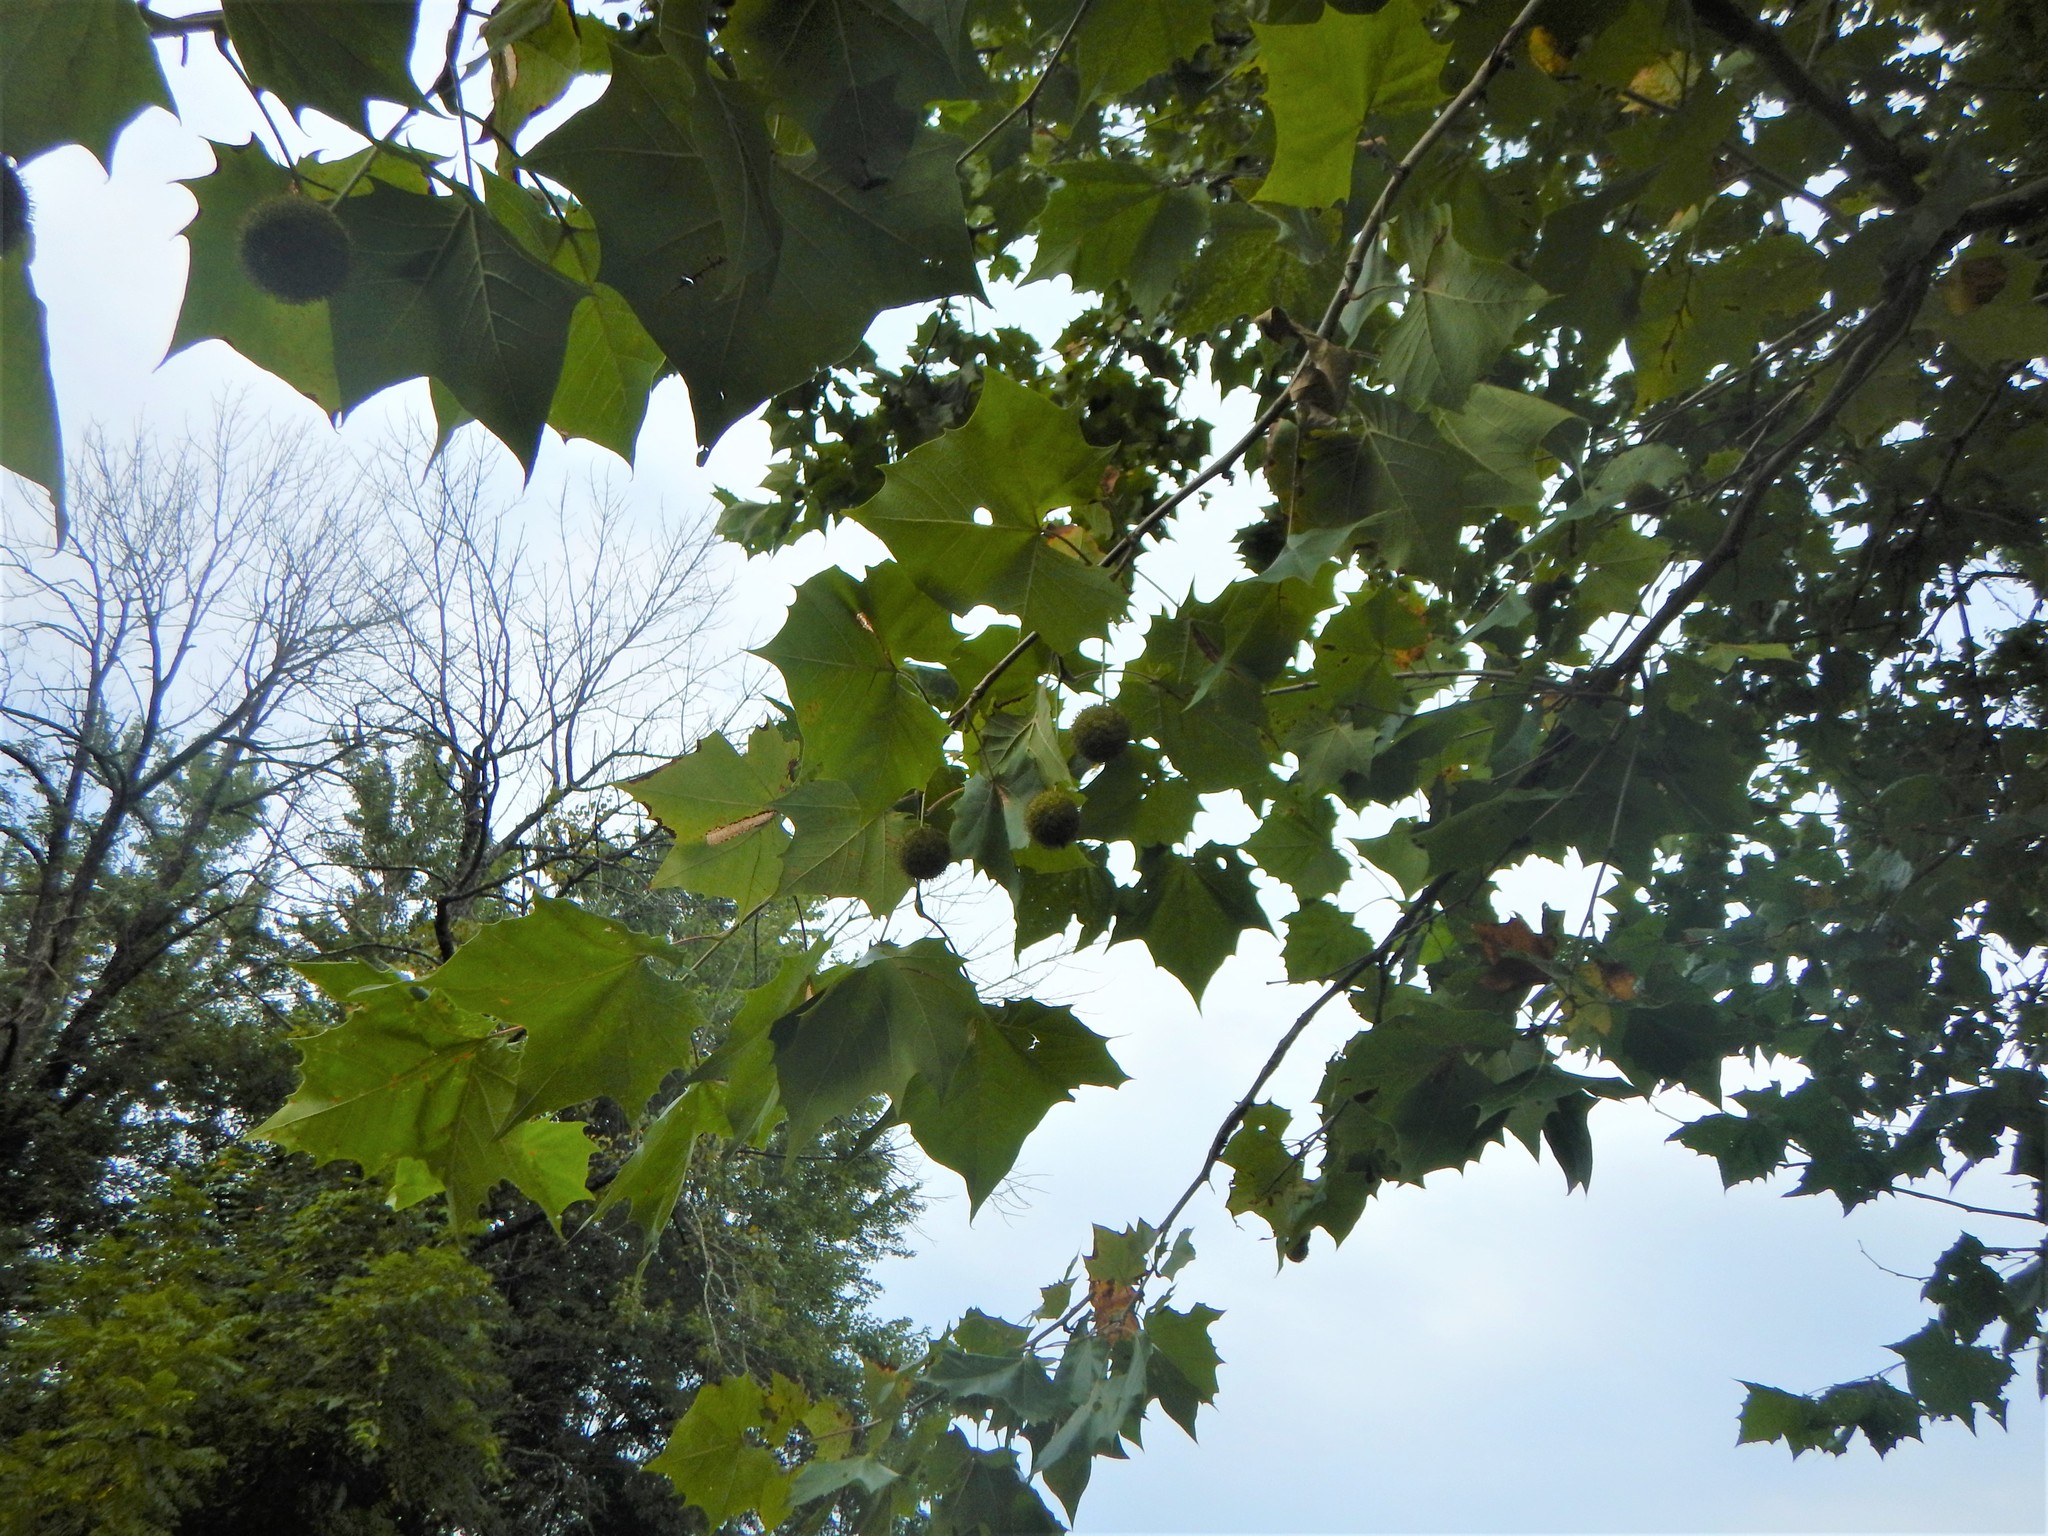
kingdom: Plantae
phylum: Tracheophyta
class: Magnoliopsida
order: Proteales
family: Platanaceae
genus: Platanus
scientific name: Platanus occidentalis
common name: American sycamore
